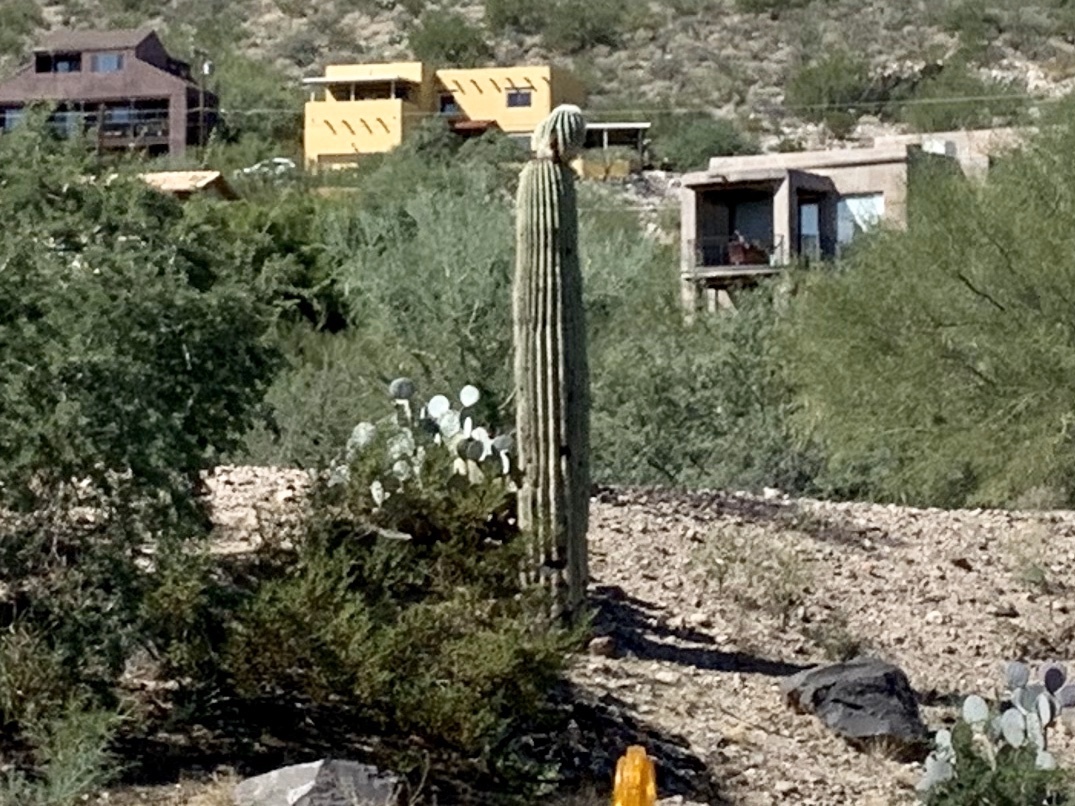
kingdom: Plantae
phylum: Tracheophyta
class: Magnoliopsida
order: Caryophyllales
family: Cactaceae
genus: Carnegiea
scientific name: Carnegiea gigantea
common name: Saguaro
